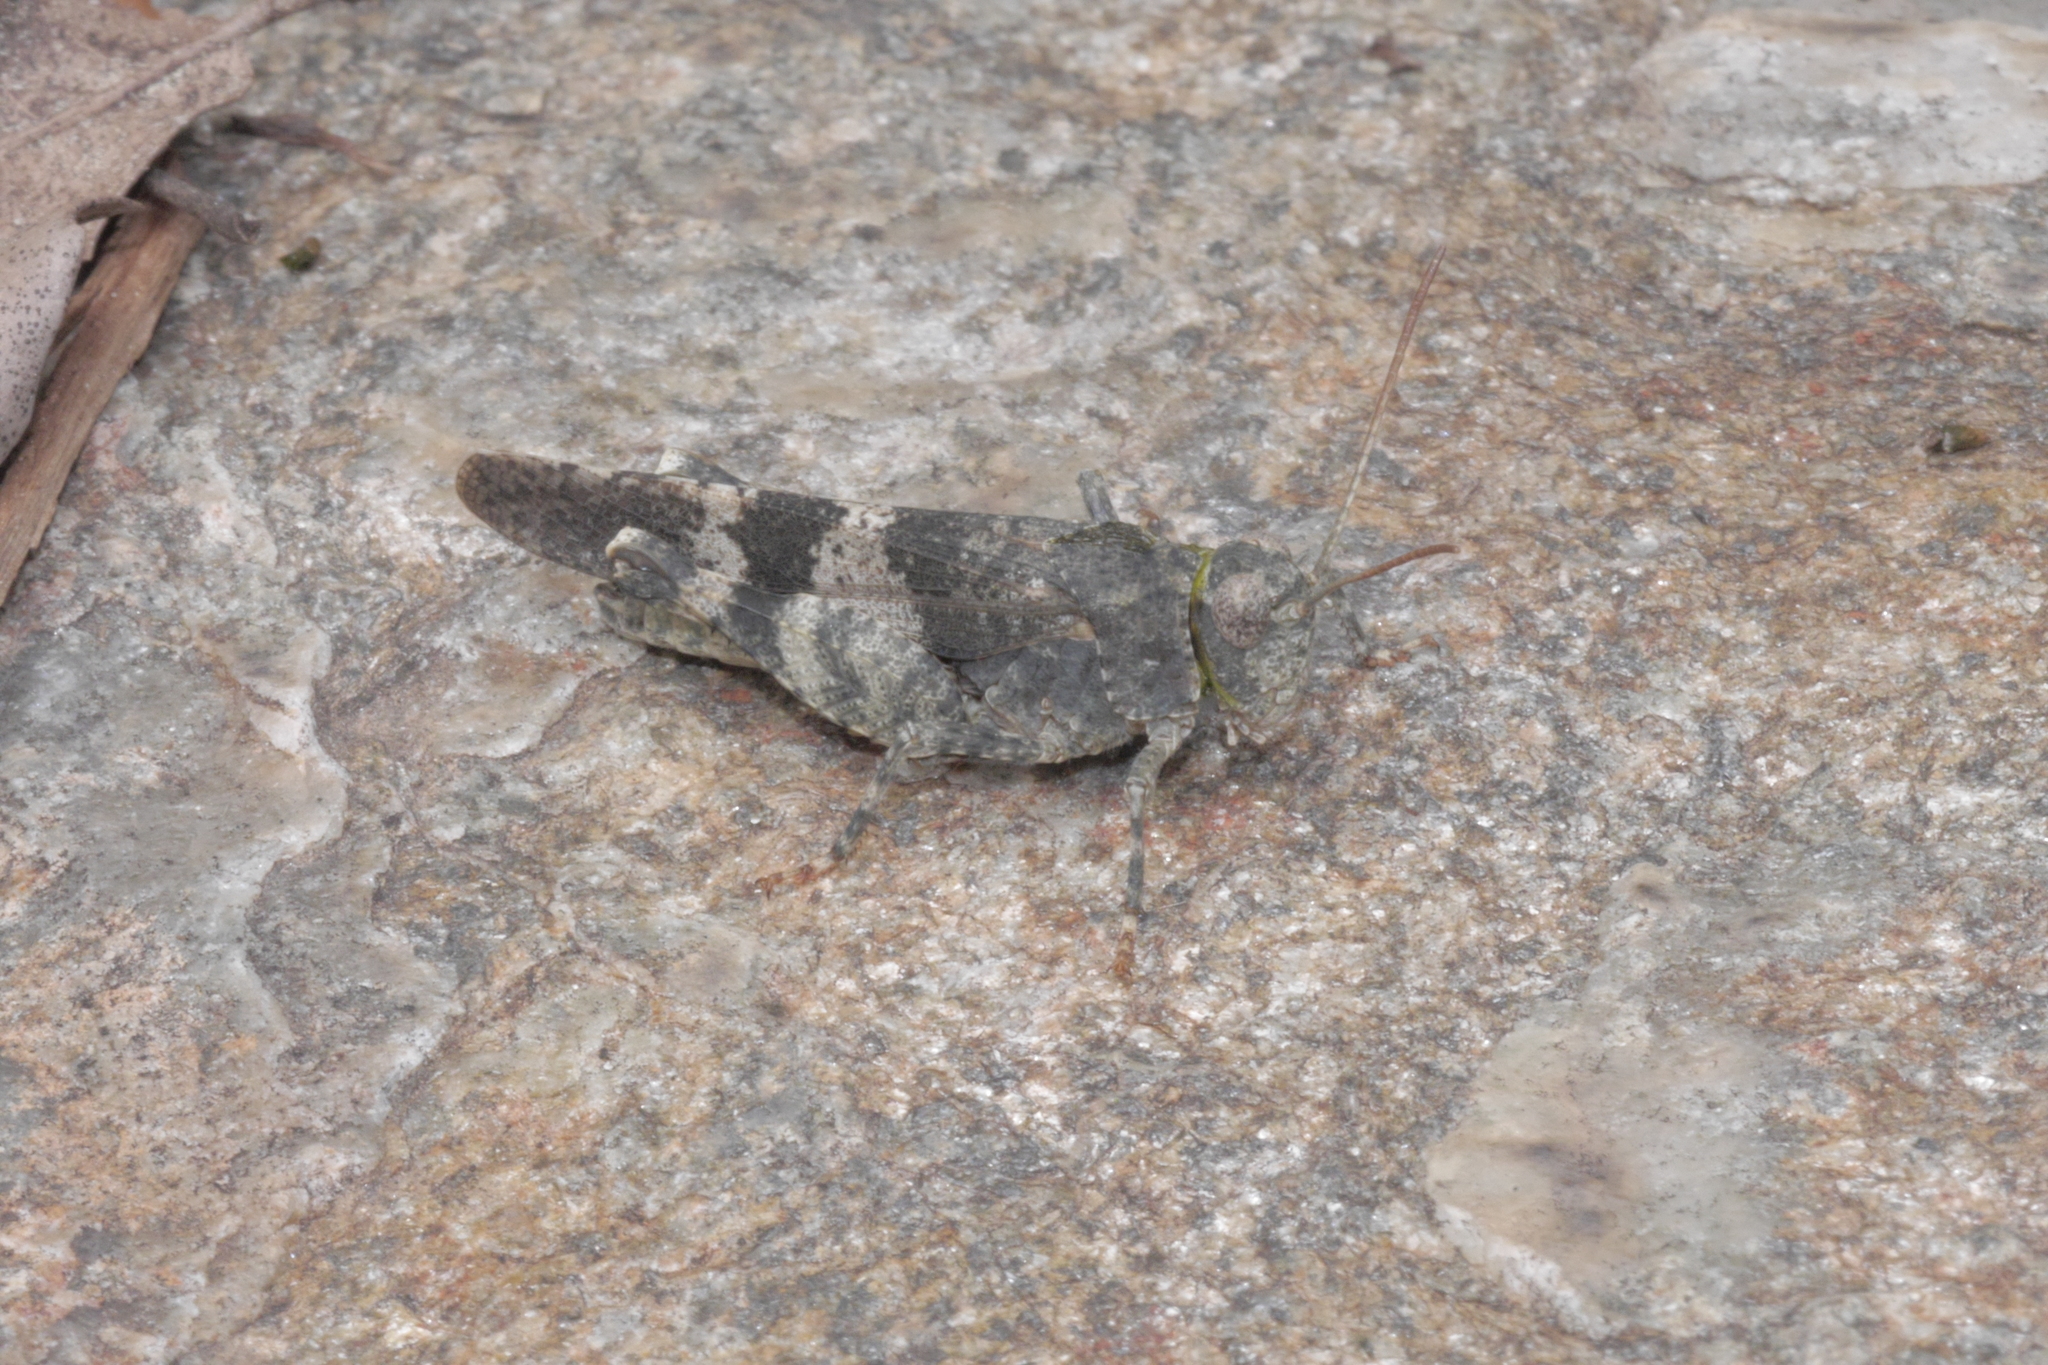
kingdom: Animalia
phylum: Arthropoda
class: Insecta
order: Orthoptera
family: Acrididae
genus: Oedipoda
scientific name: Oedipoda germanica
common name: Red band-winged grasshopper
